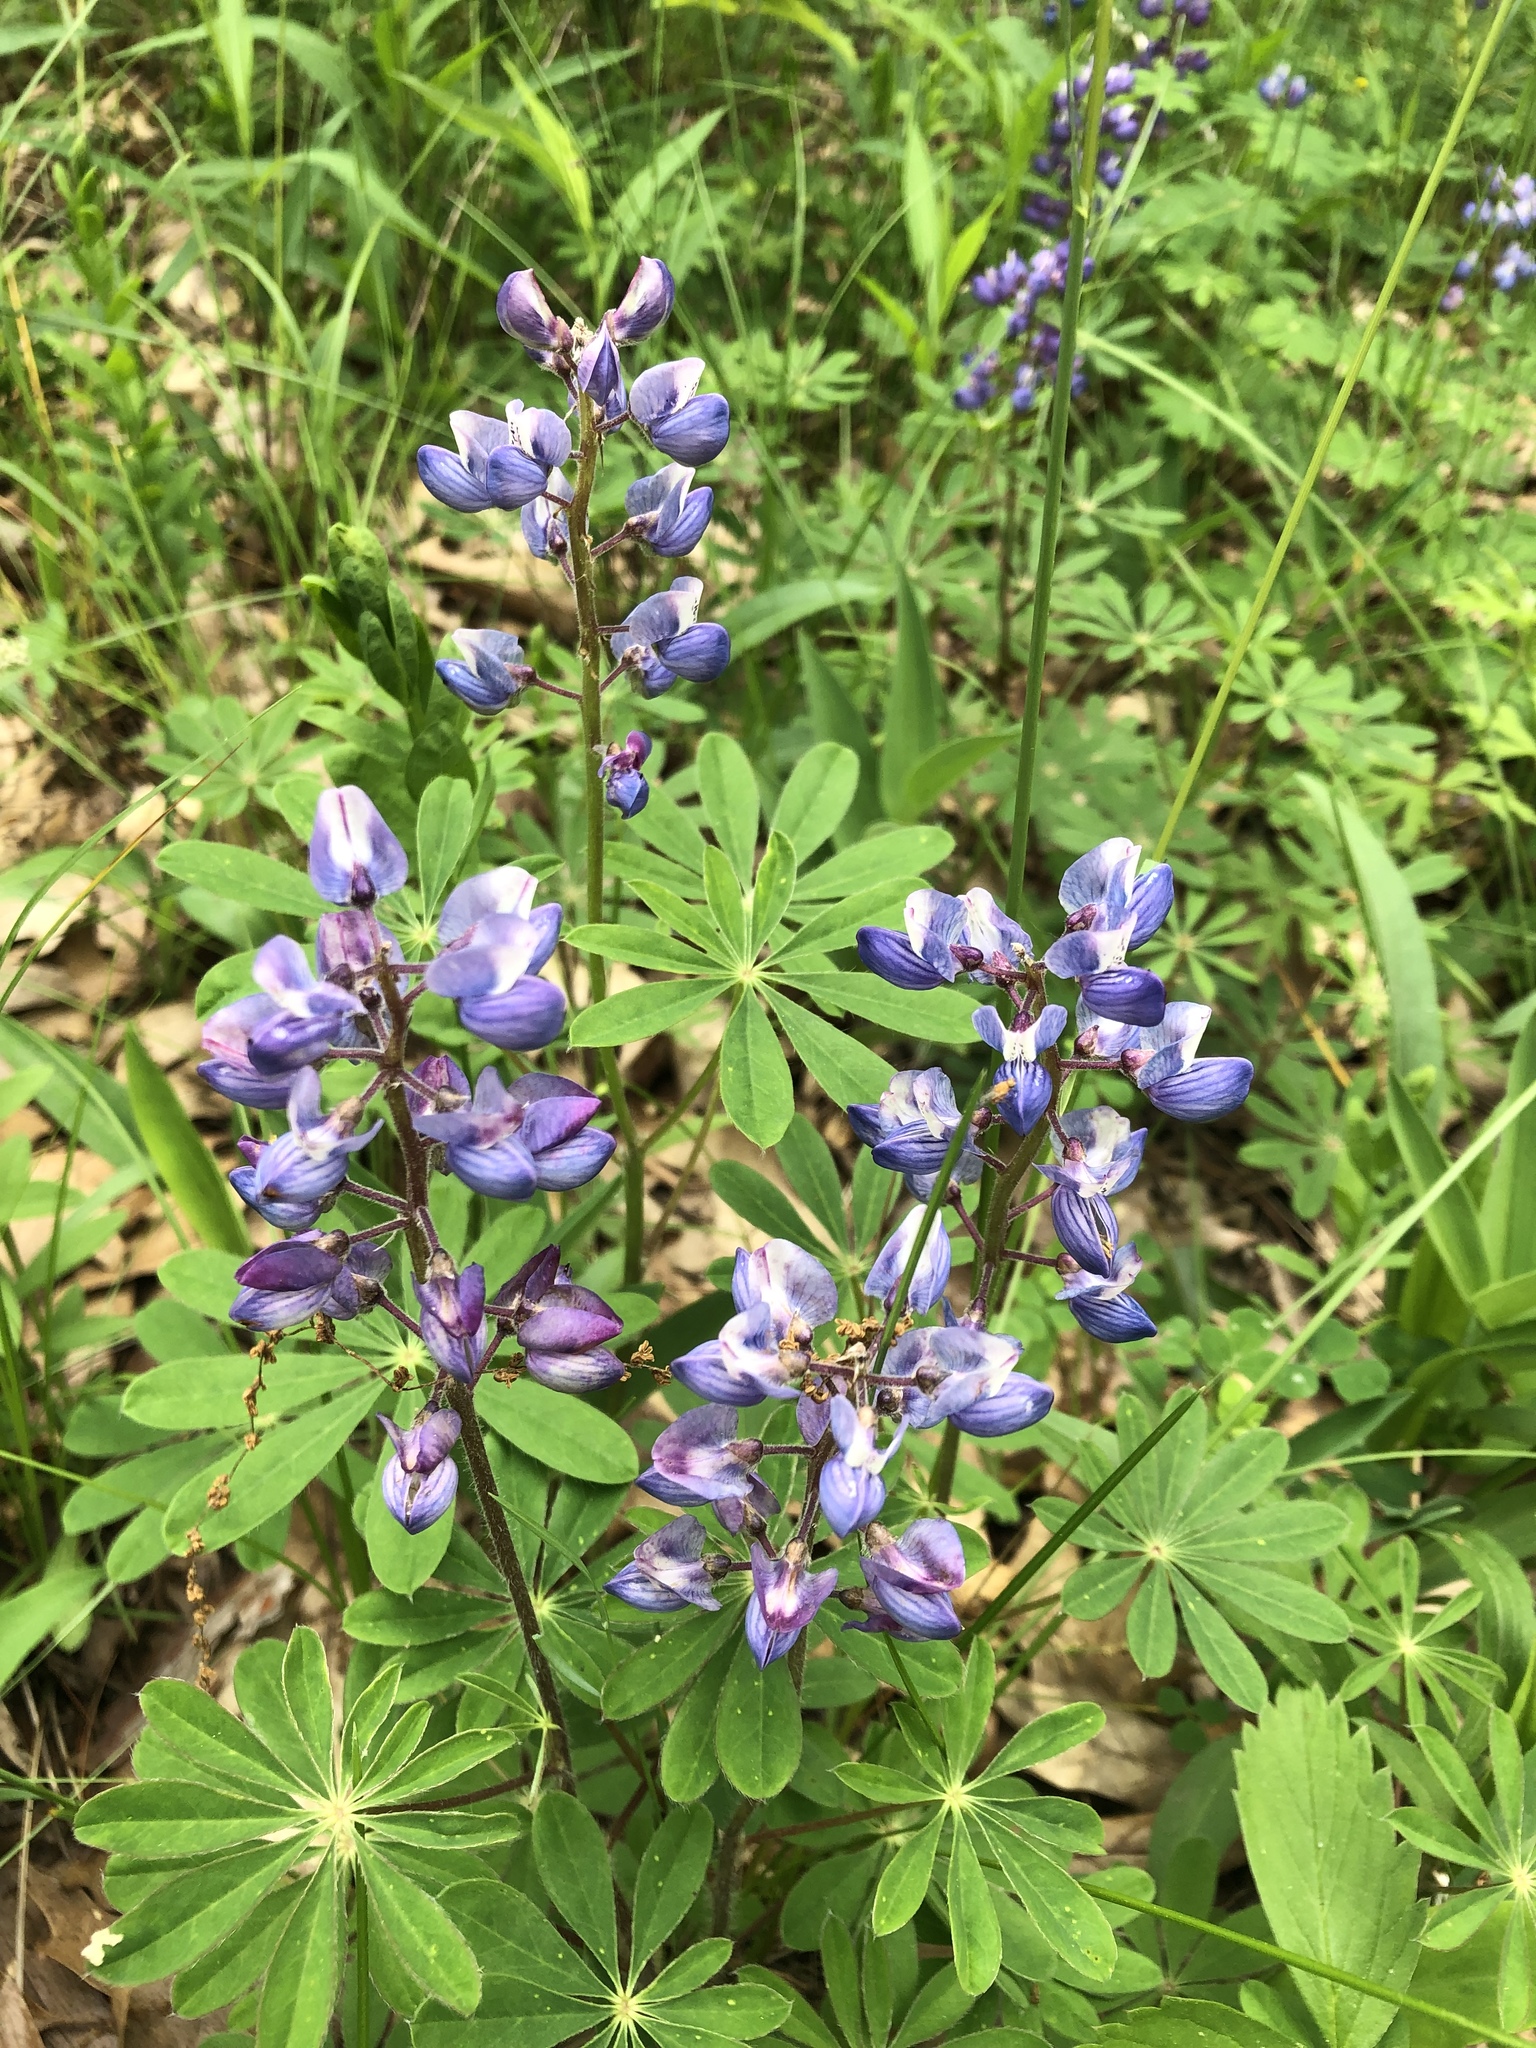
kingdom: Plantae
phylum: Tracheophyta
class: Magnoliopsida
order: Fabales
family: Fabaceae
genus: Lupinus
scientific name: Lupinus perennis
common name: Sundial lupine
